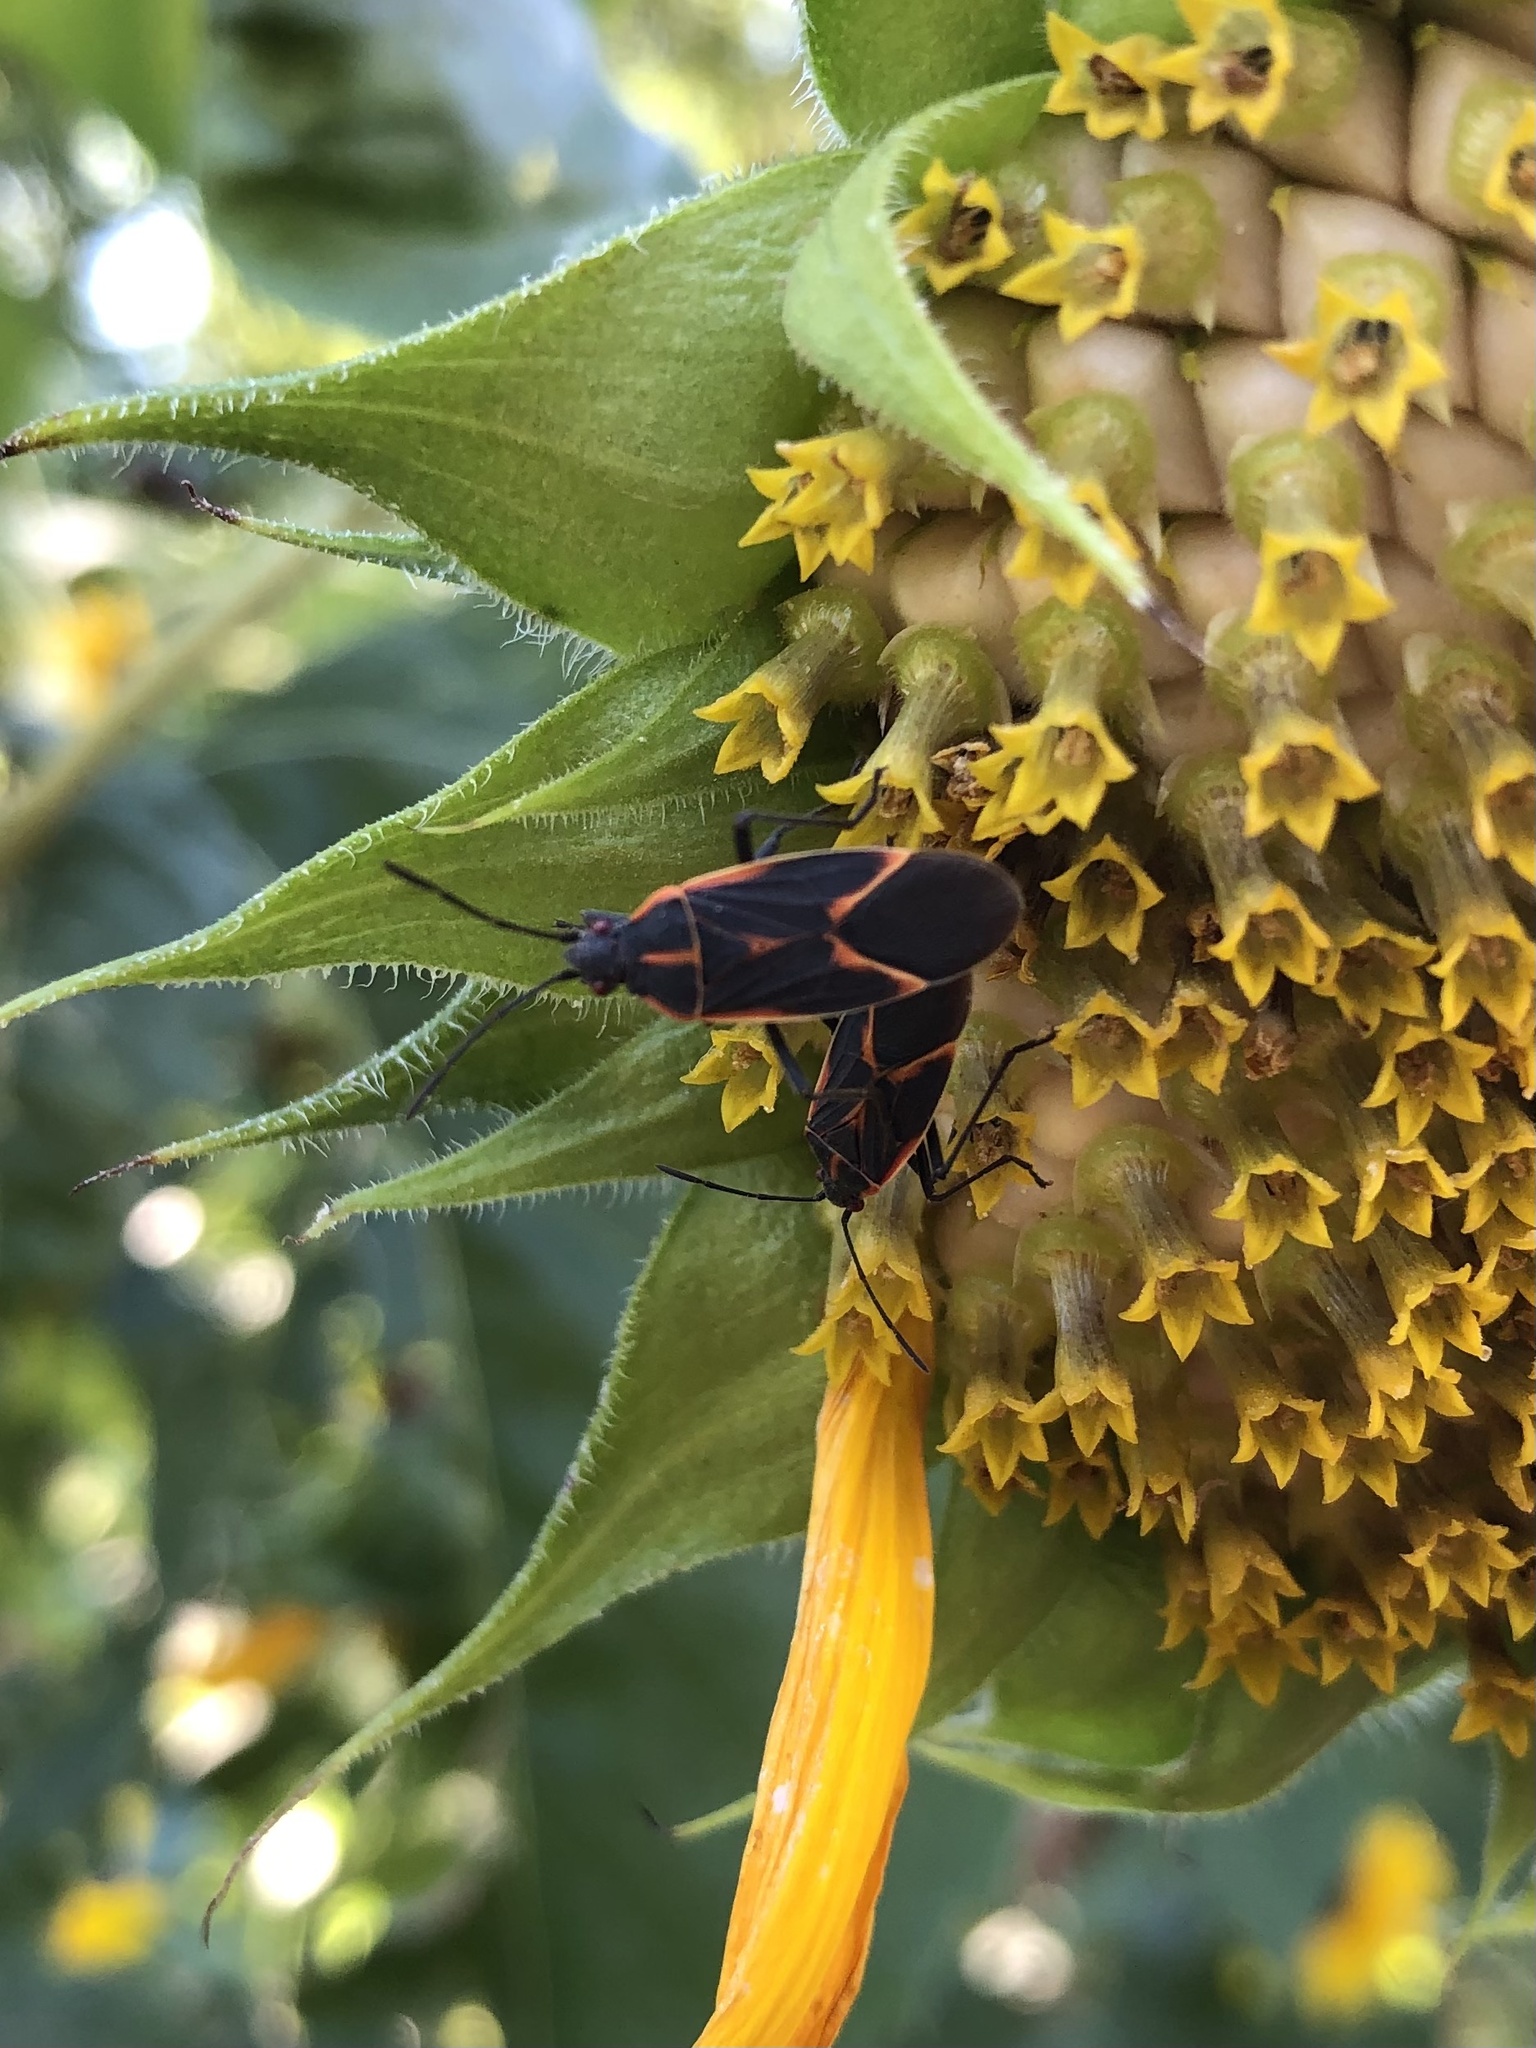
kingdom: Animalia
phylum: Arthropoda
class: Insecta
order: Hemiptera
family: Rhopalidae
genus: Boisea
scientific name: Boisea trivittata
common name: Boxelder bug
